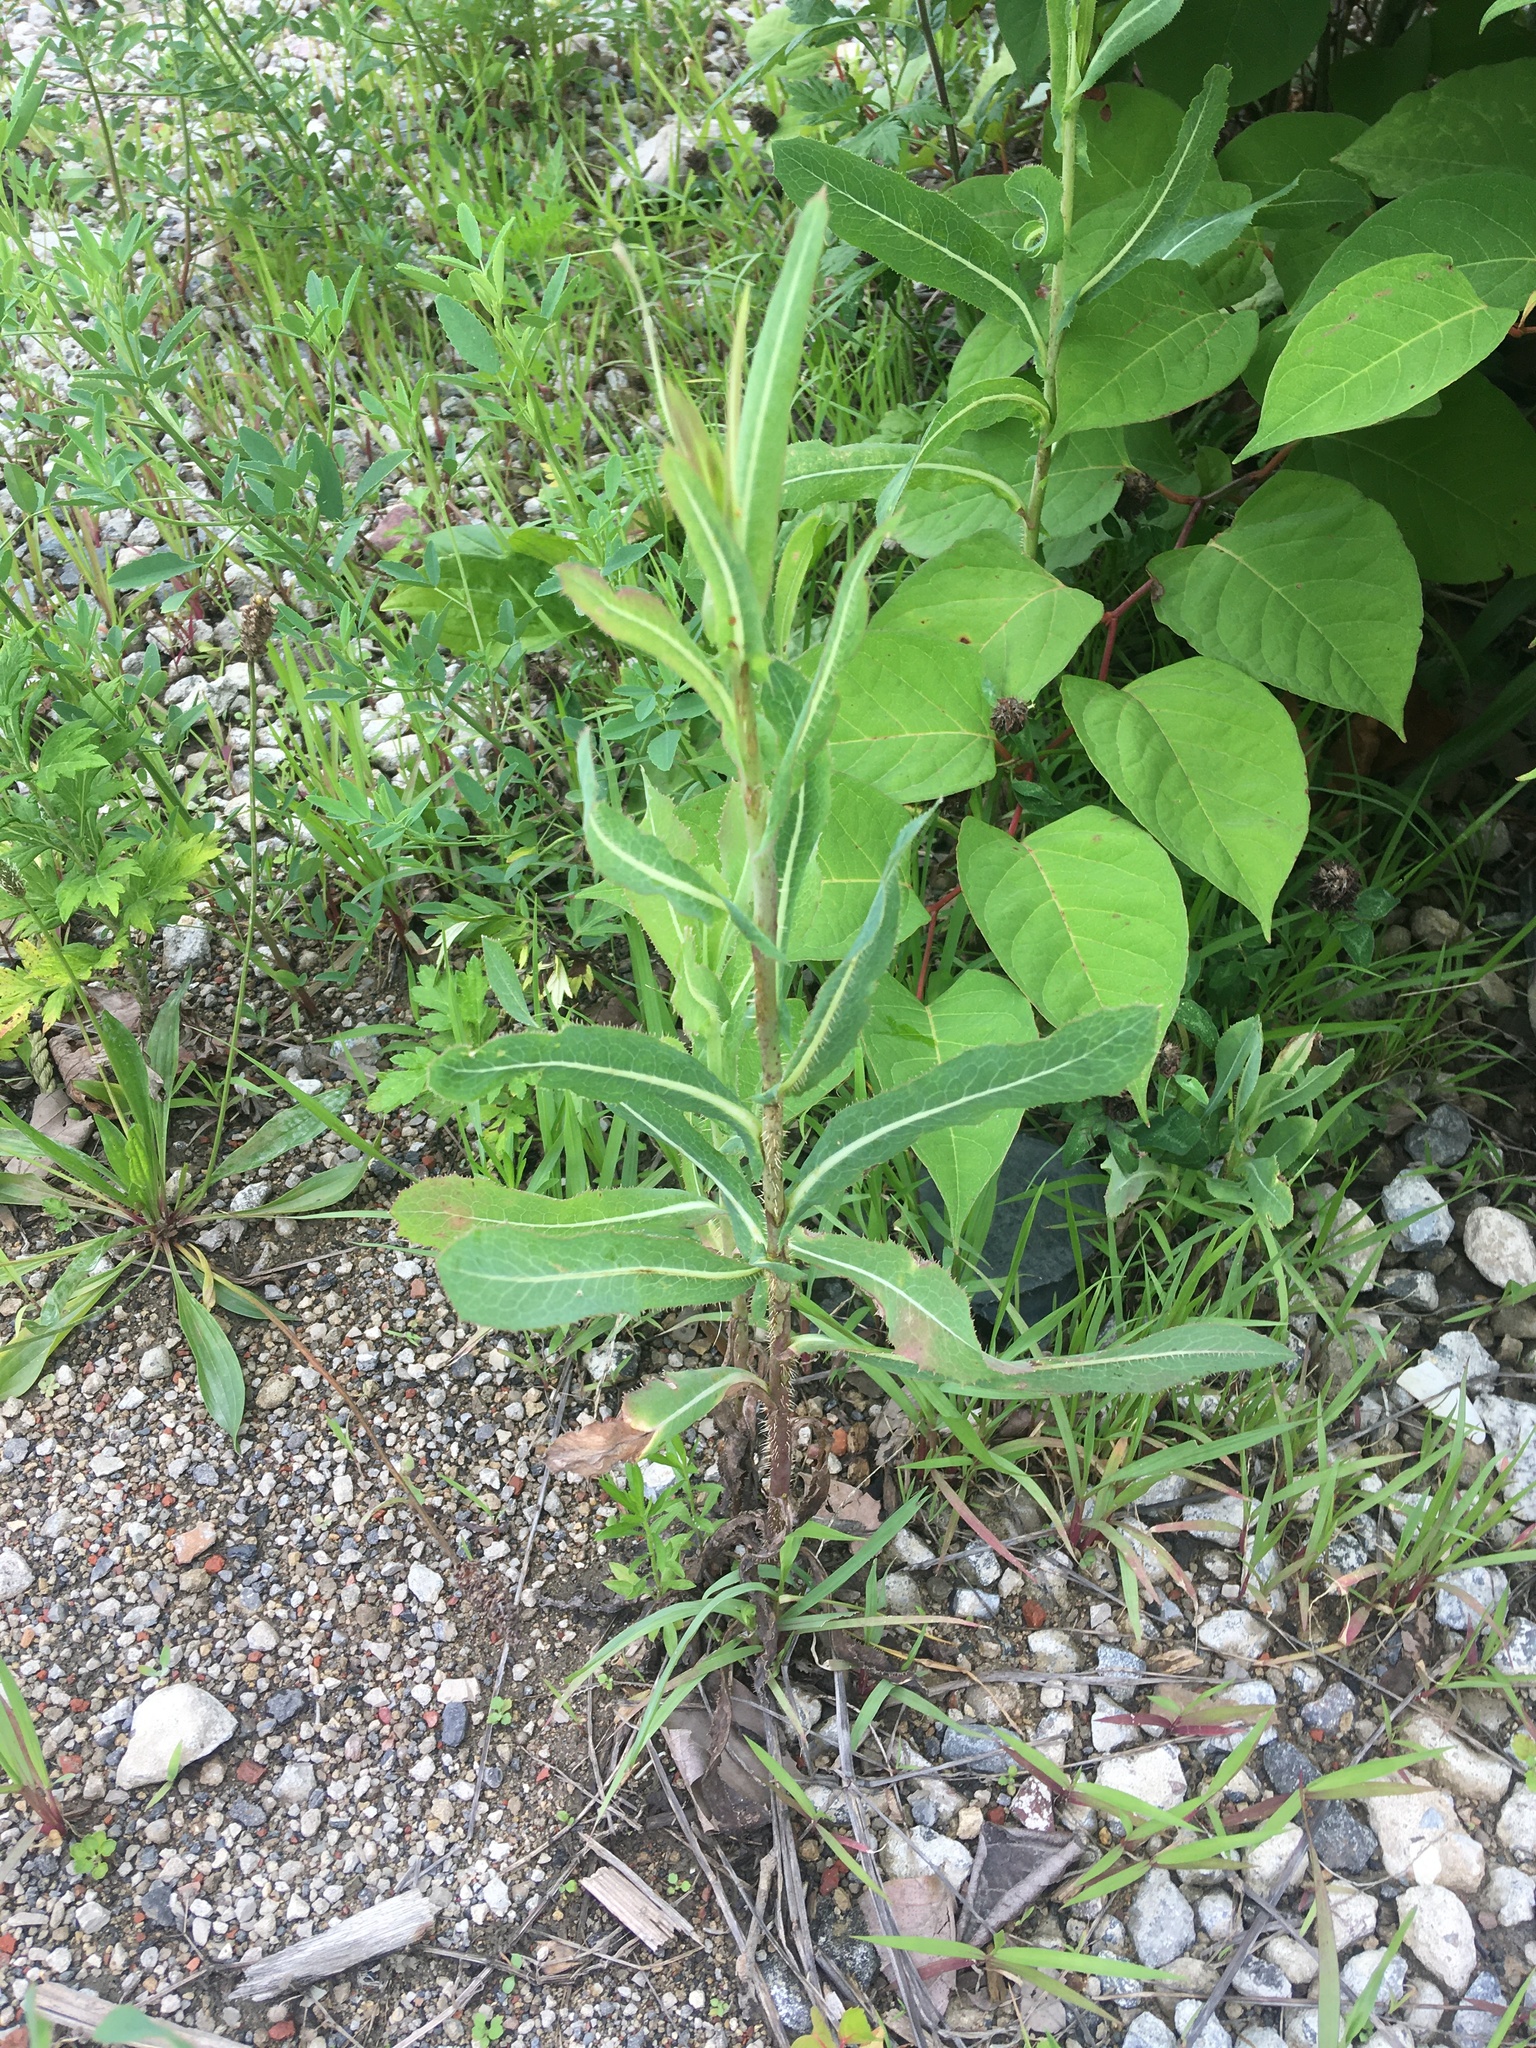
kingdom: Plantae
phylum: Tracheophyta
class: Magnoliopsida
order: Asterales
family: Asteraceae
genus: Lactuca
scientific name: Lactuca serriola
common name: Prickly lettuce
